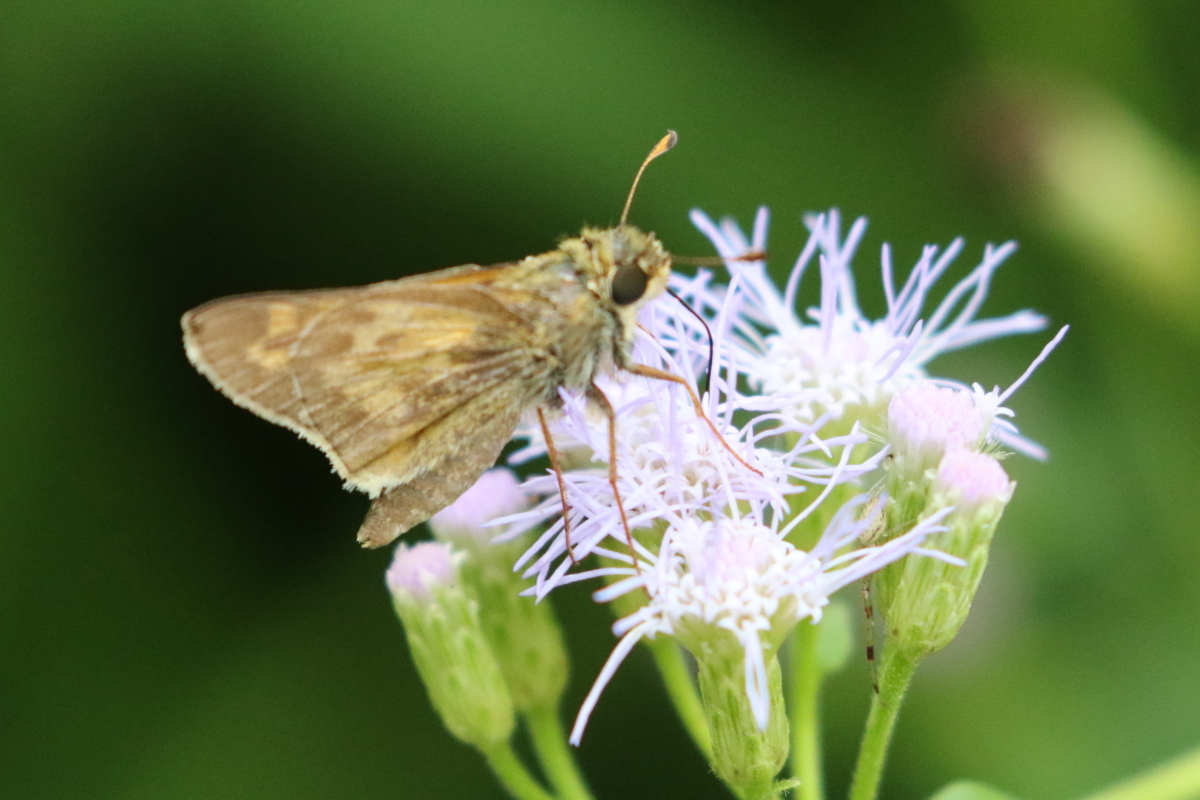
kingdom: Animalia
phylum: Arthropoda
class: Insecta
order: Lepidoptera
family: Hesperiidae
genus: Atalopedes
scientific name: Atalopedes
